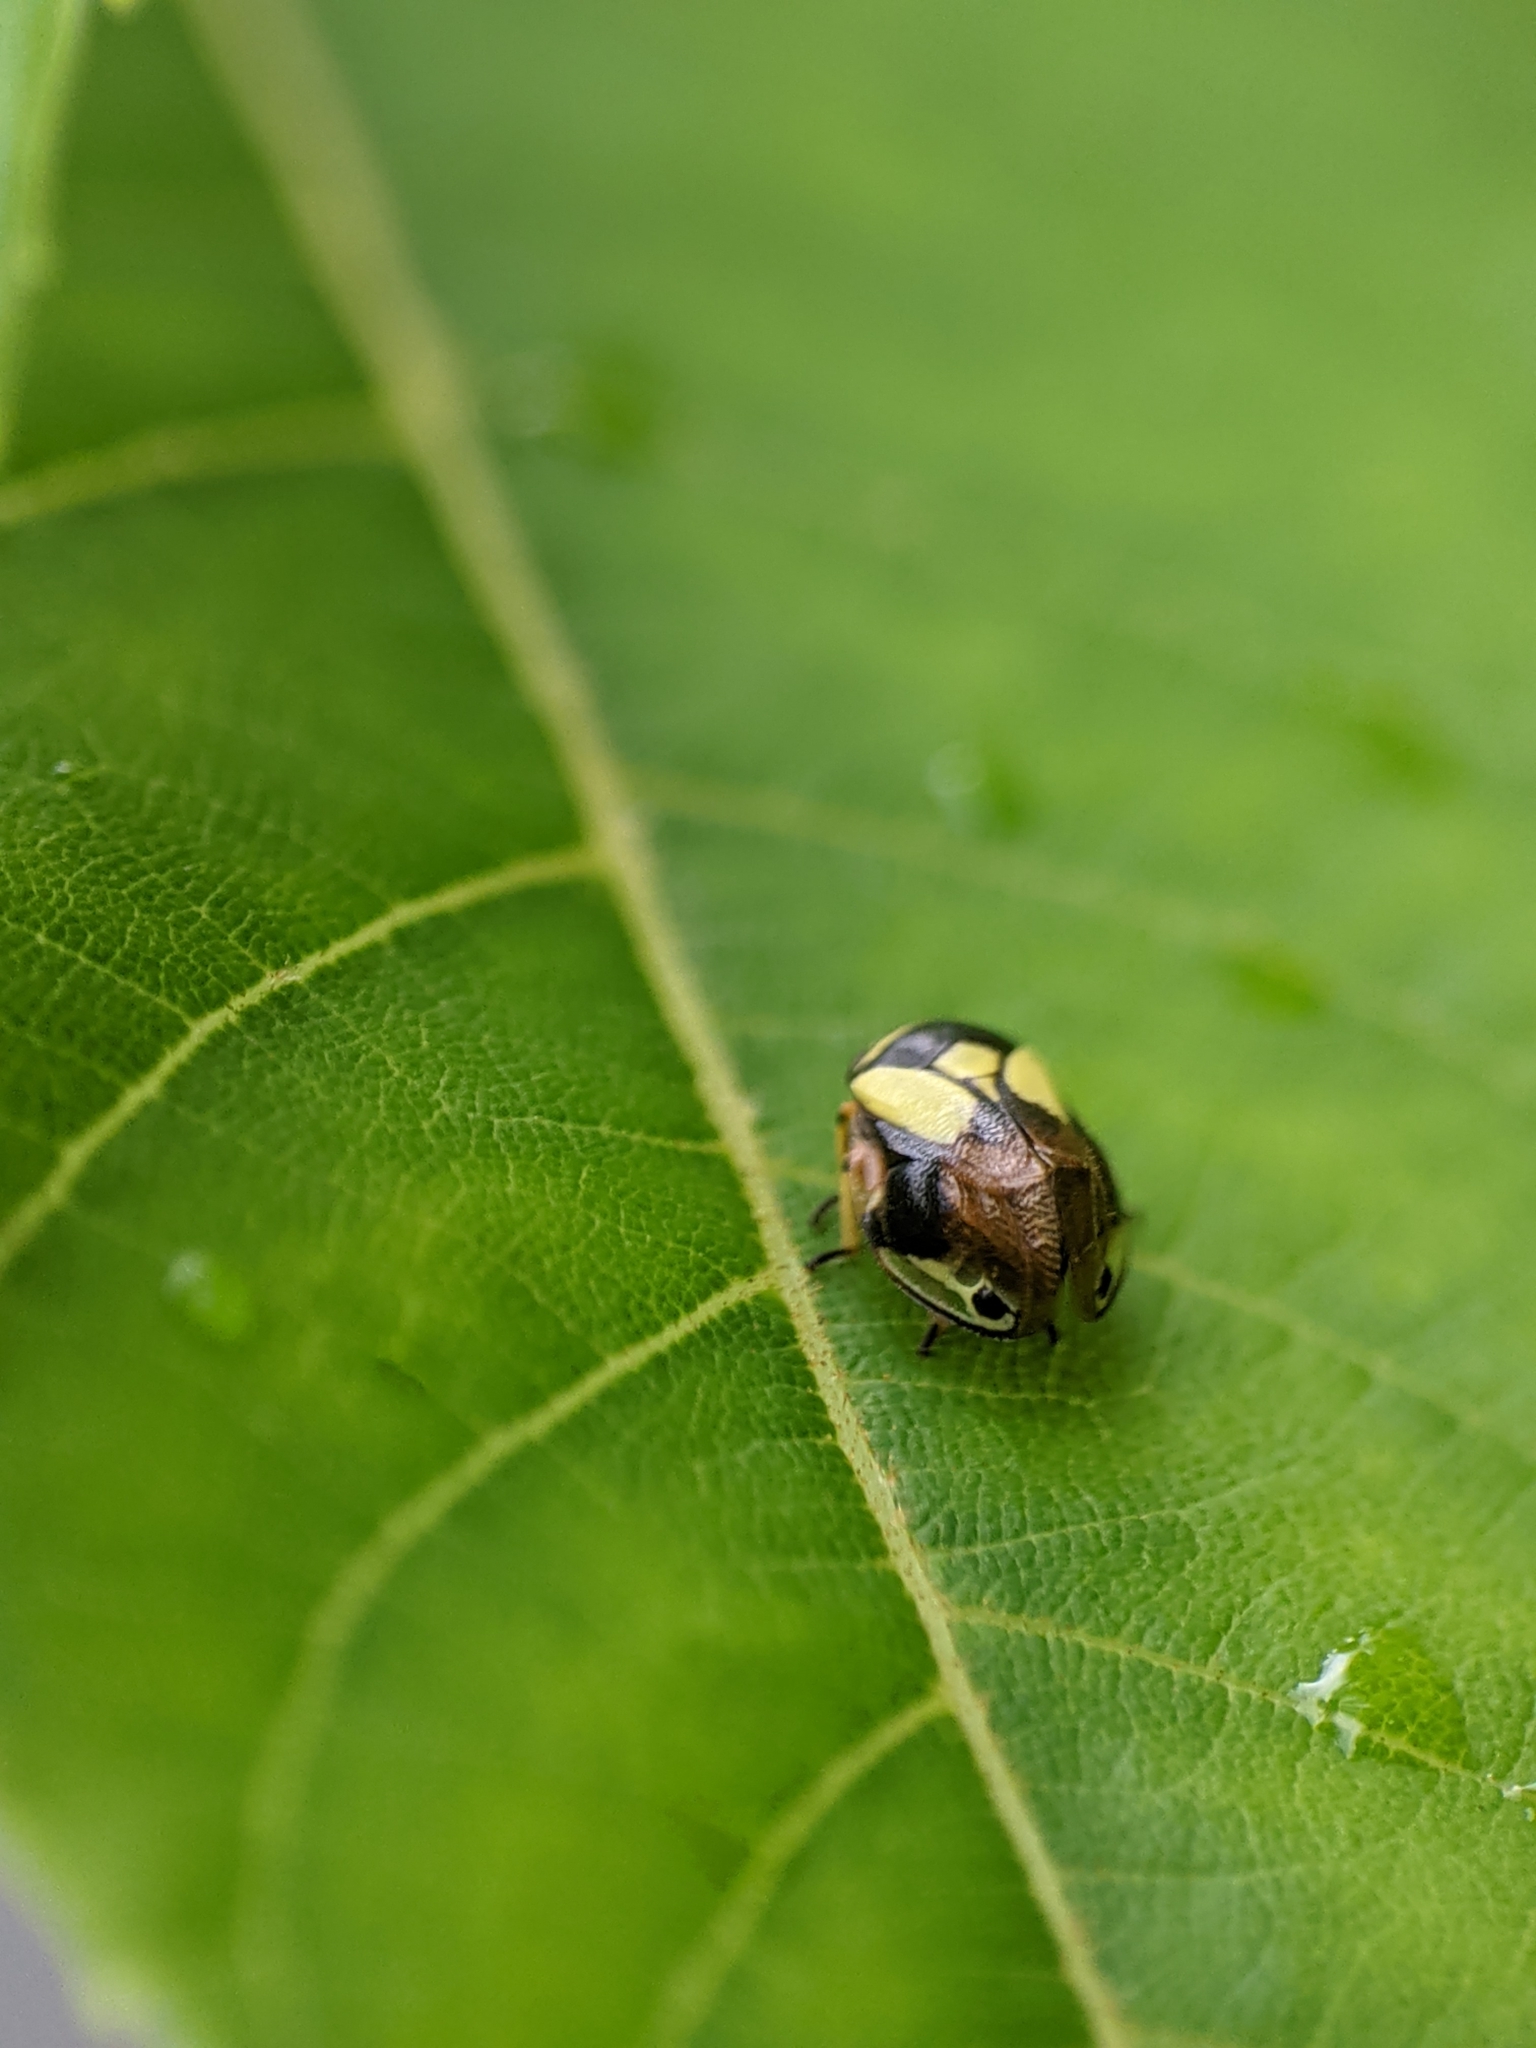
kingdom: Animalia
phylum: Arthropoda
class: Insecta
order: Hemiptera
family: Clastopteridae
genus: Clastoptera
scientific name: Clastoptera proteus
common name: Dogwood spittlebug
